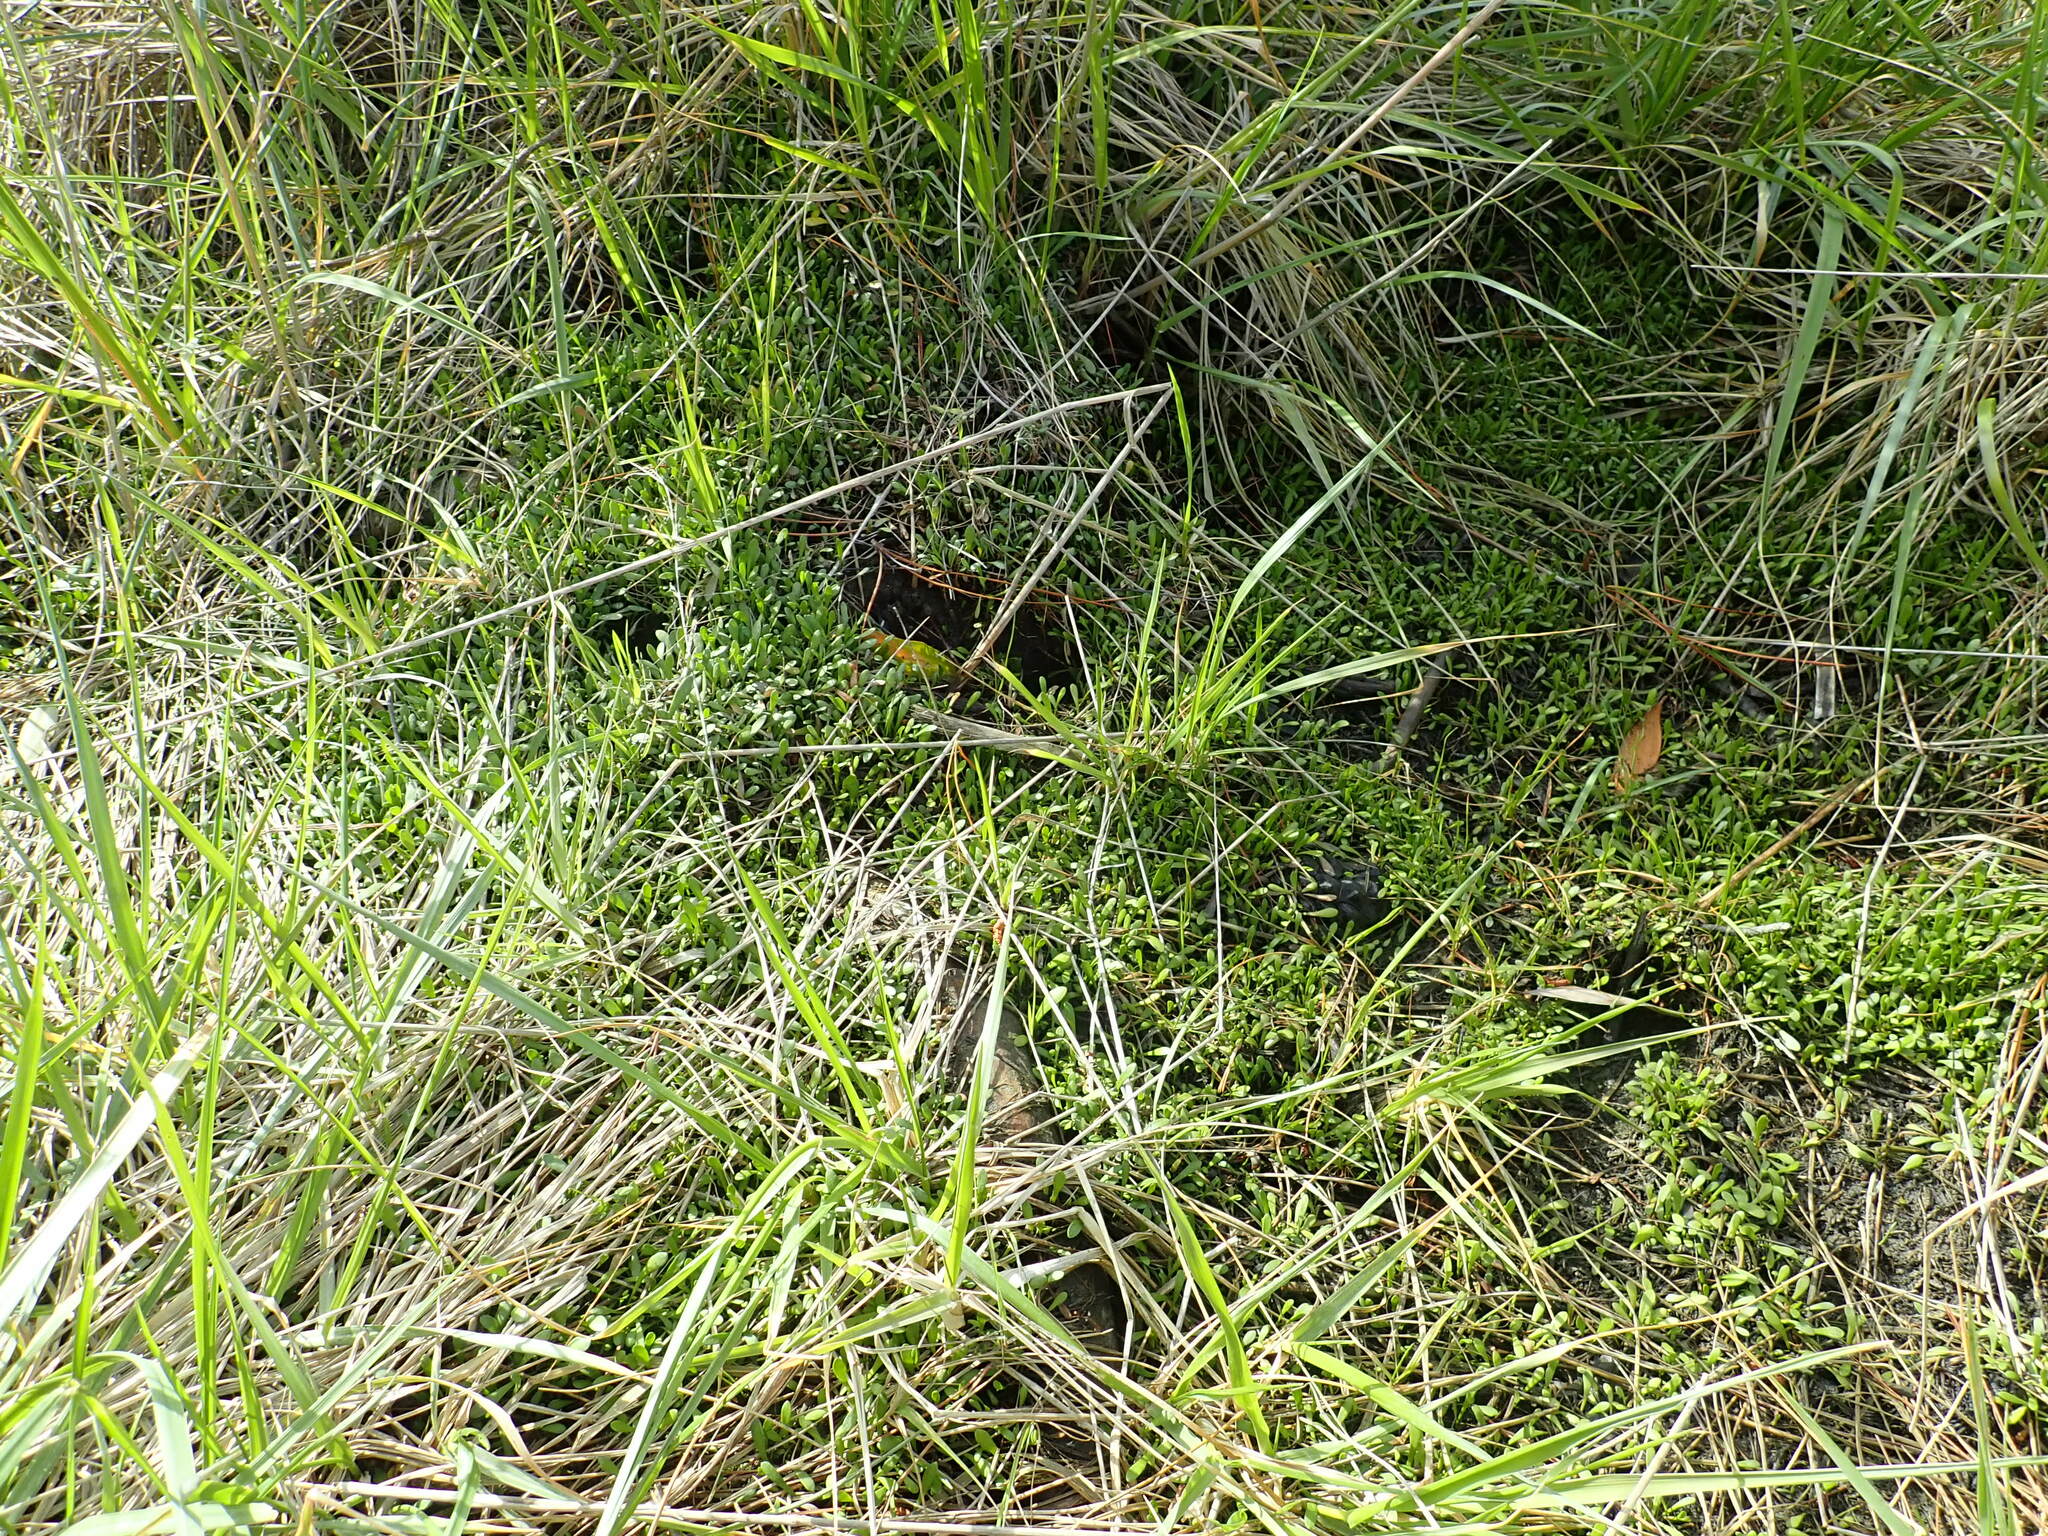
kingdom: Plantae
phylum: Tracheophyta
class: Magnoliopsida
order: Asterales
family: Goodeniaceae
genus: Goodenia
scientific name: Goodenia radicans
